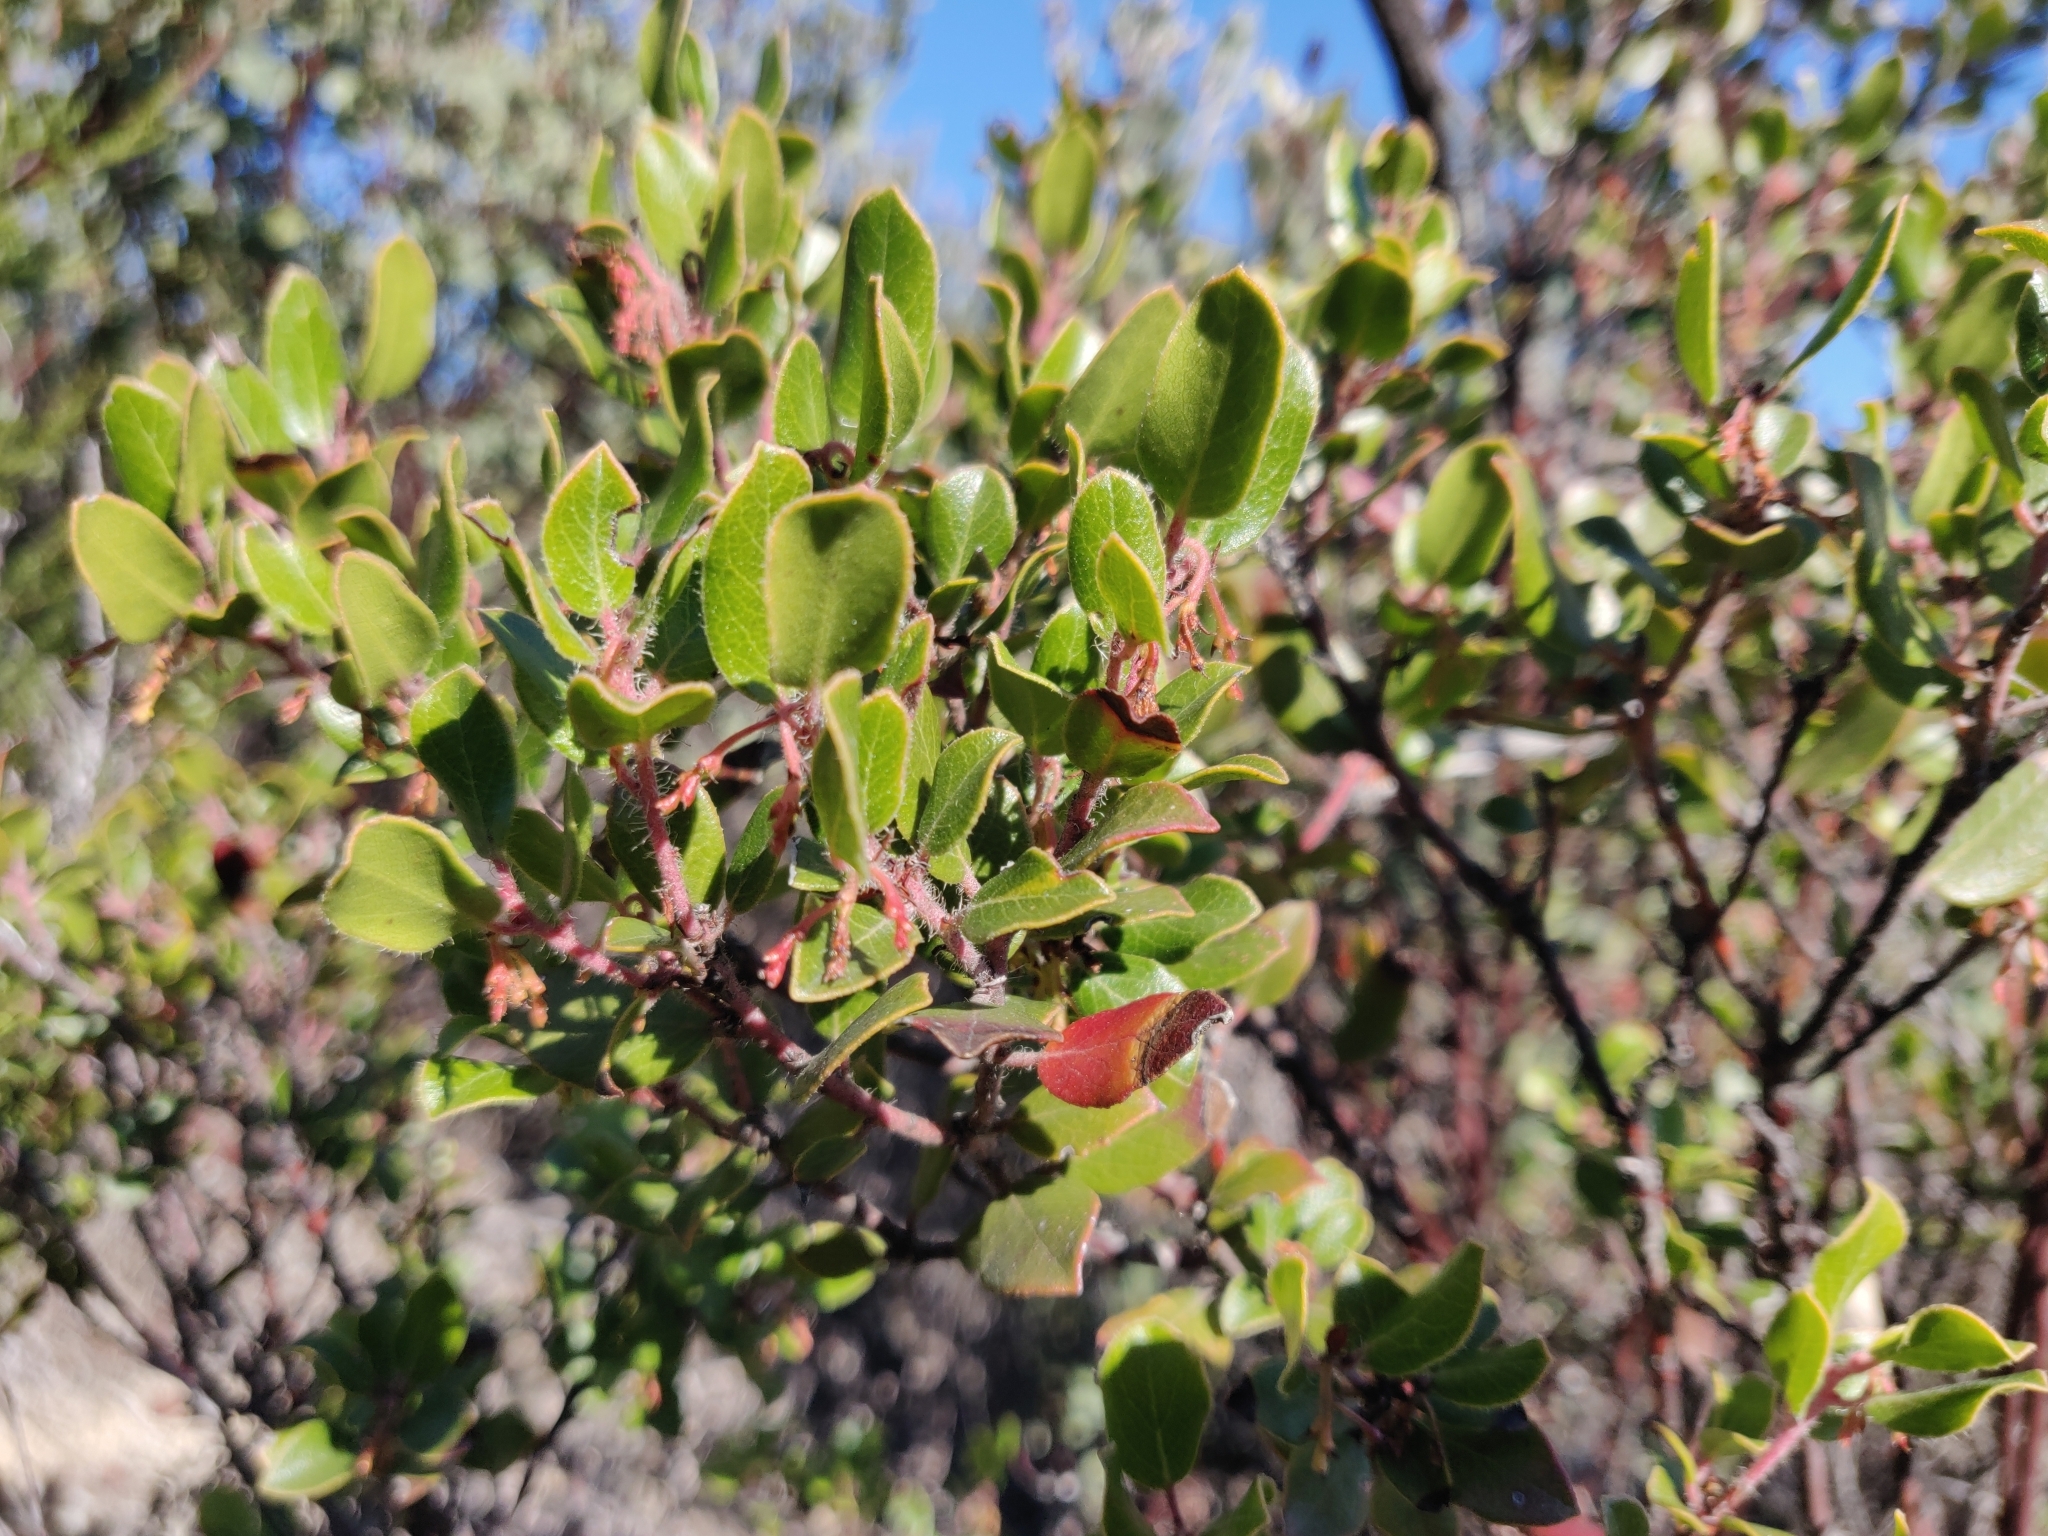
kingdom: Plantae
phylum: Tracheophyta
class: Magnoliopsida
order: Ericales
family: Ericaceae
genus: Arctostaphylos
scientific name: Arctostaphylos nummularia
